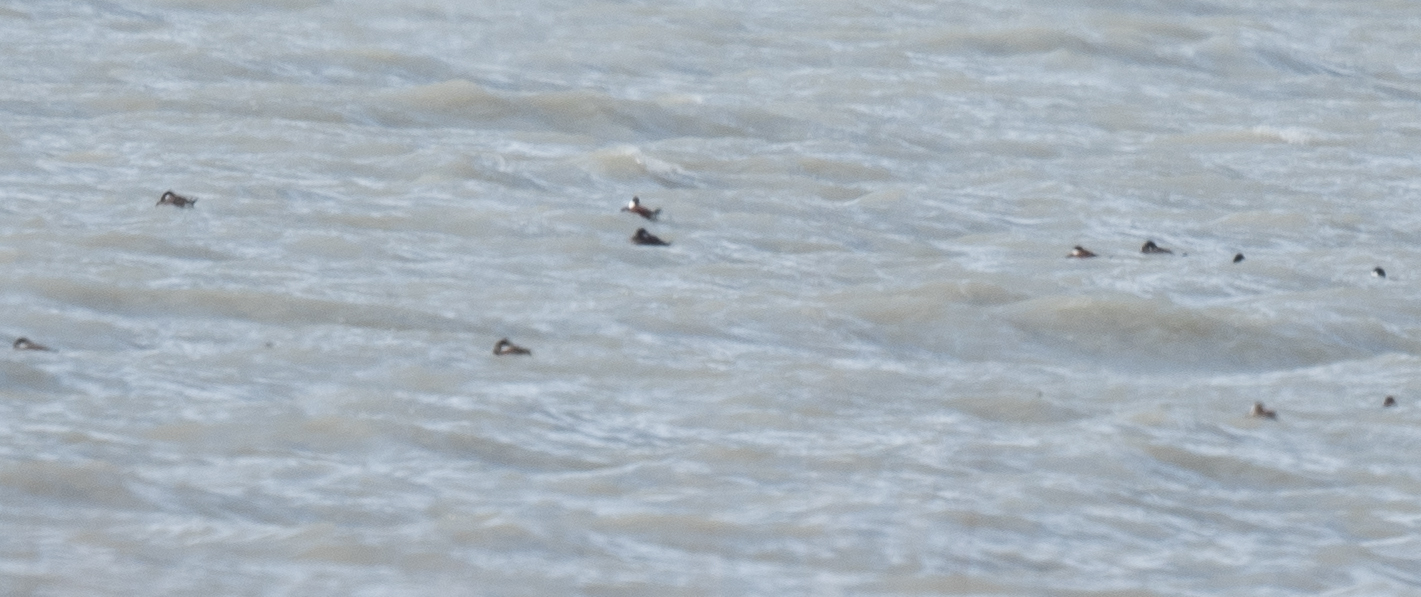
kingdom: Animalia
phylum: Chordata
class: Aves
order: Anseriformes
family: Anatidae
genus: Oxyura
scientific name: Oxyura jamaicensis
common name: Ruddy duck
